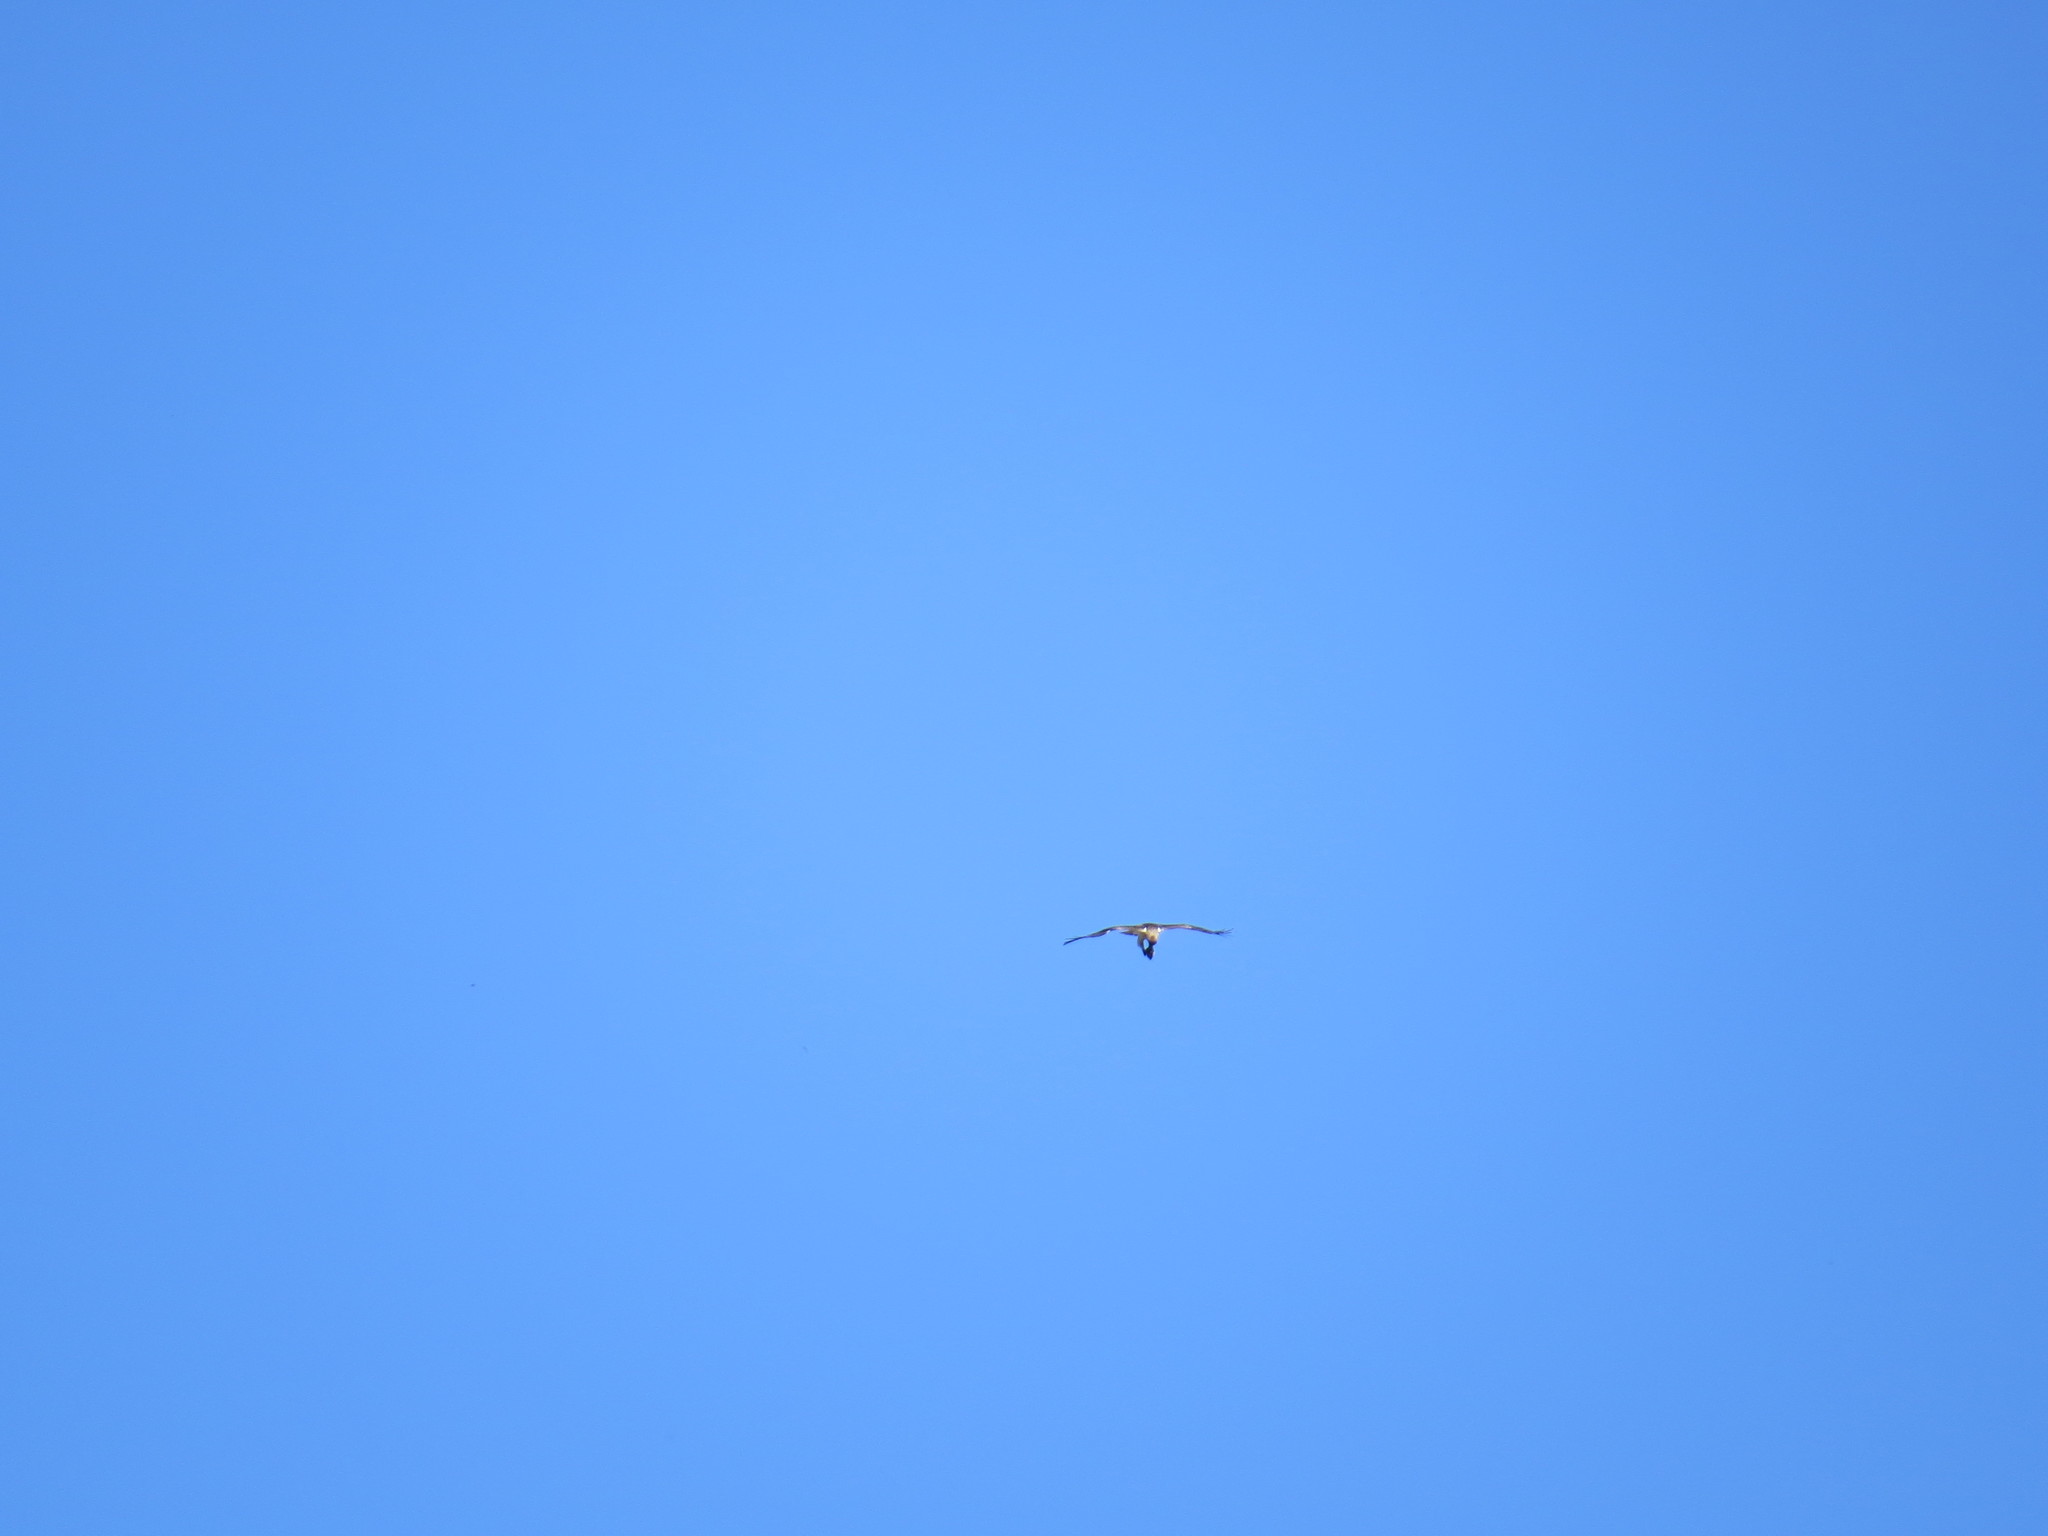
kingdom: Animalia
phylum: Chordata
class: Aves
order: Accipitriformes
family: Accipitridae
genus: Hieraaetus
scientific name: Hieraaetus pennatus
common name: Booted eagle
